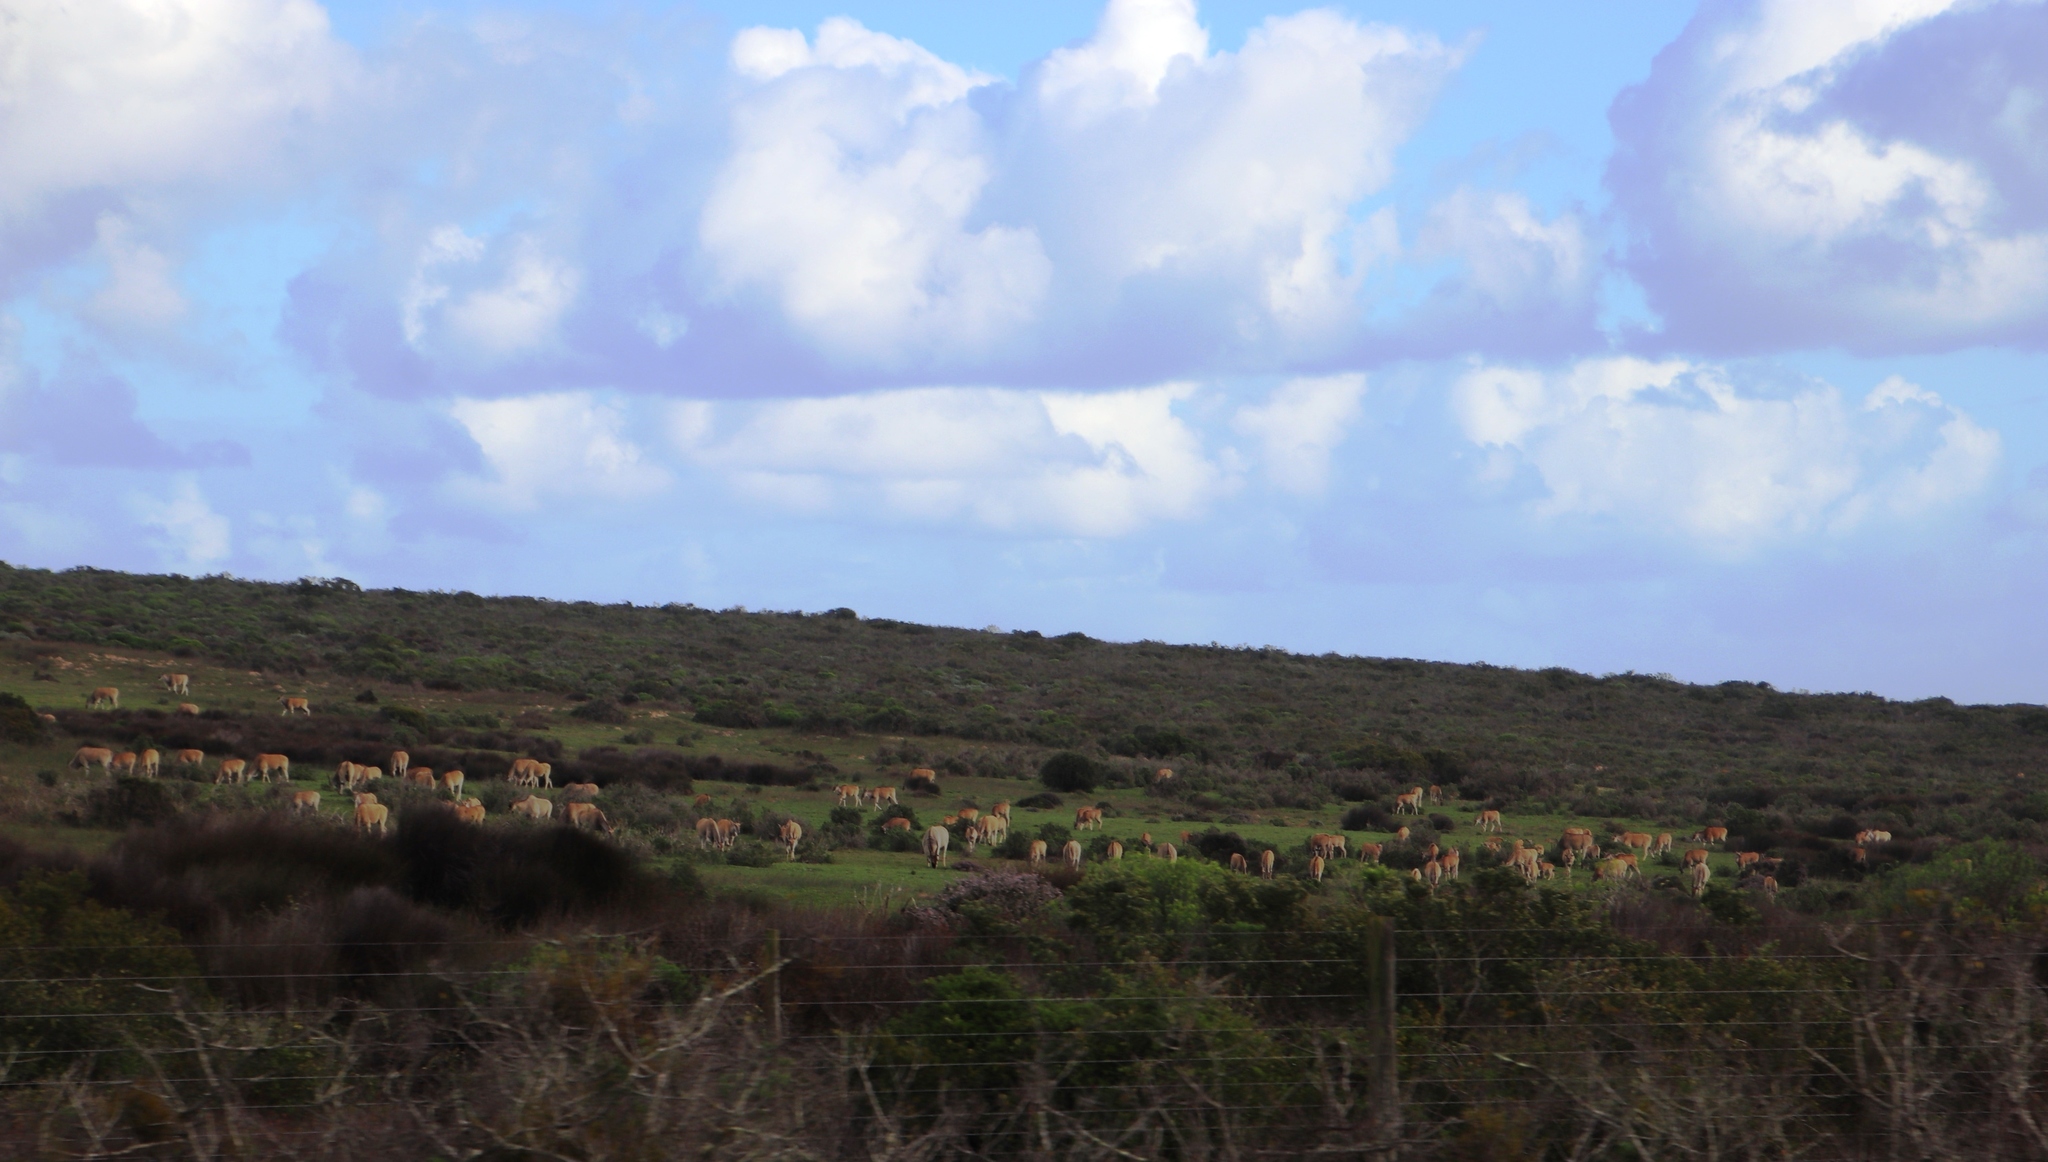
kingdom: Animalia
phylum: Chordata
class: Mammalia
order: Artiodactyla
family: Bovidae
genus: Taurotragus
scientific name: Taurotragus oryx
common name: Common eland
